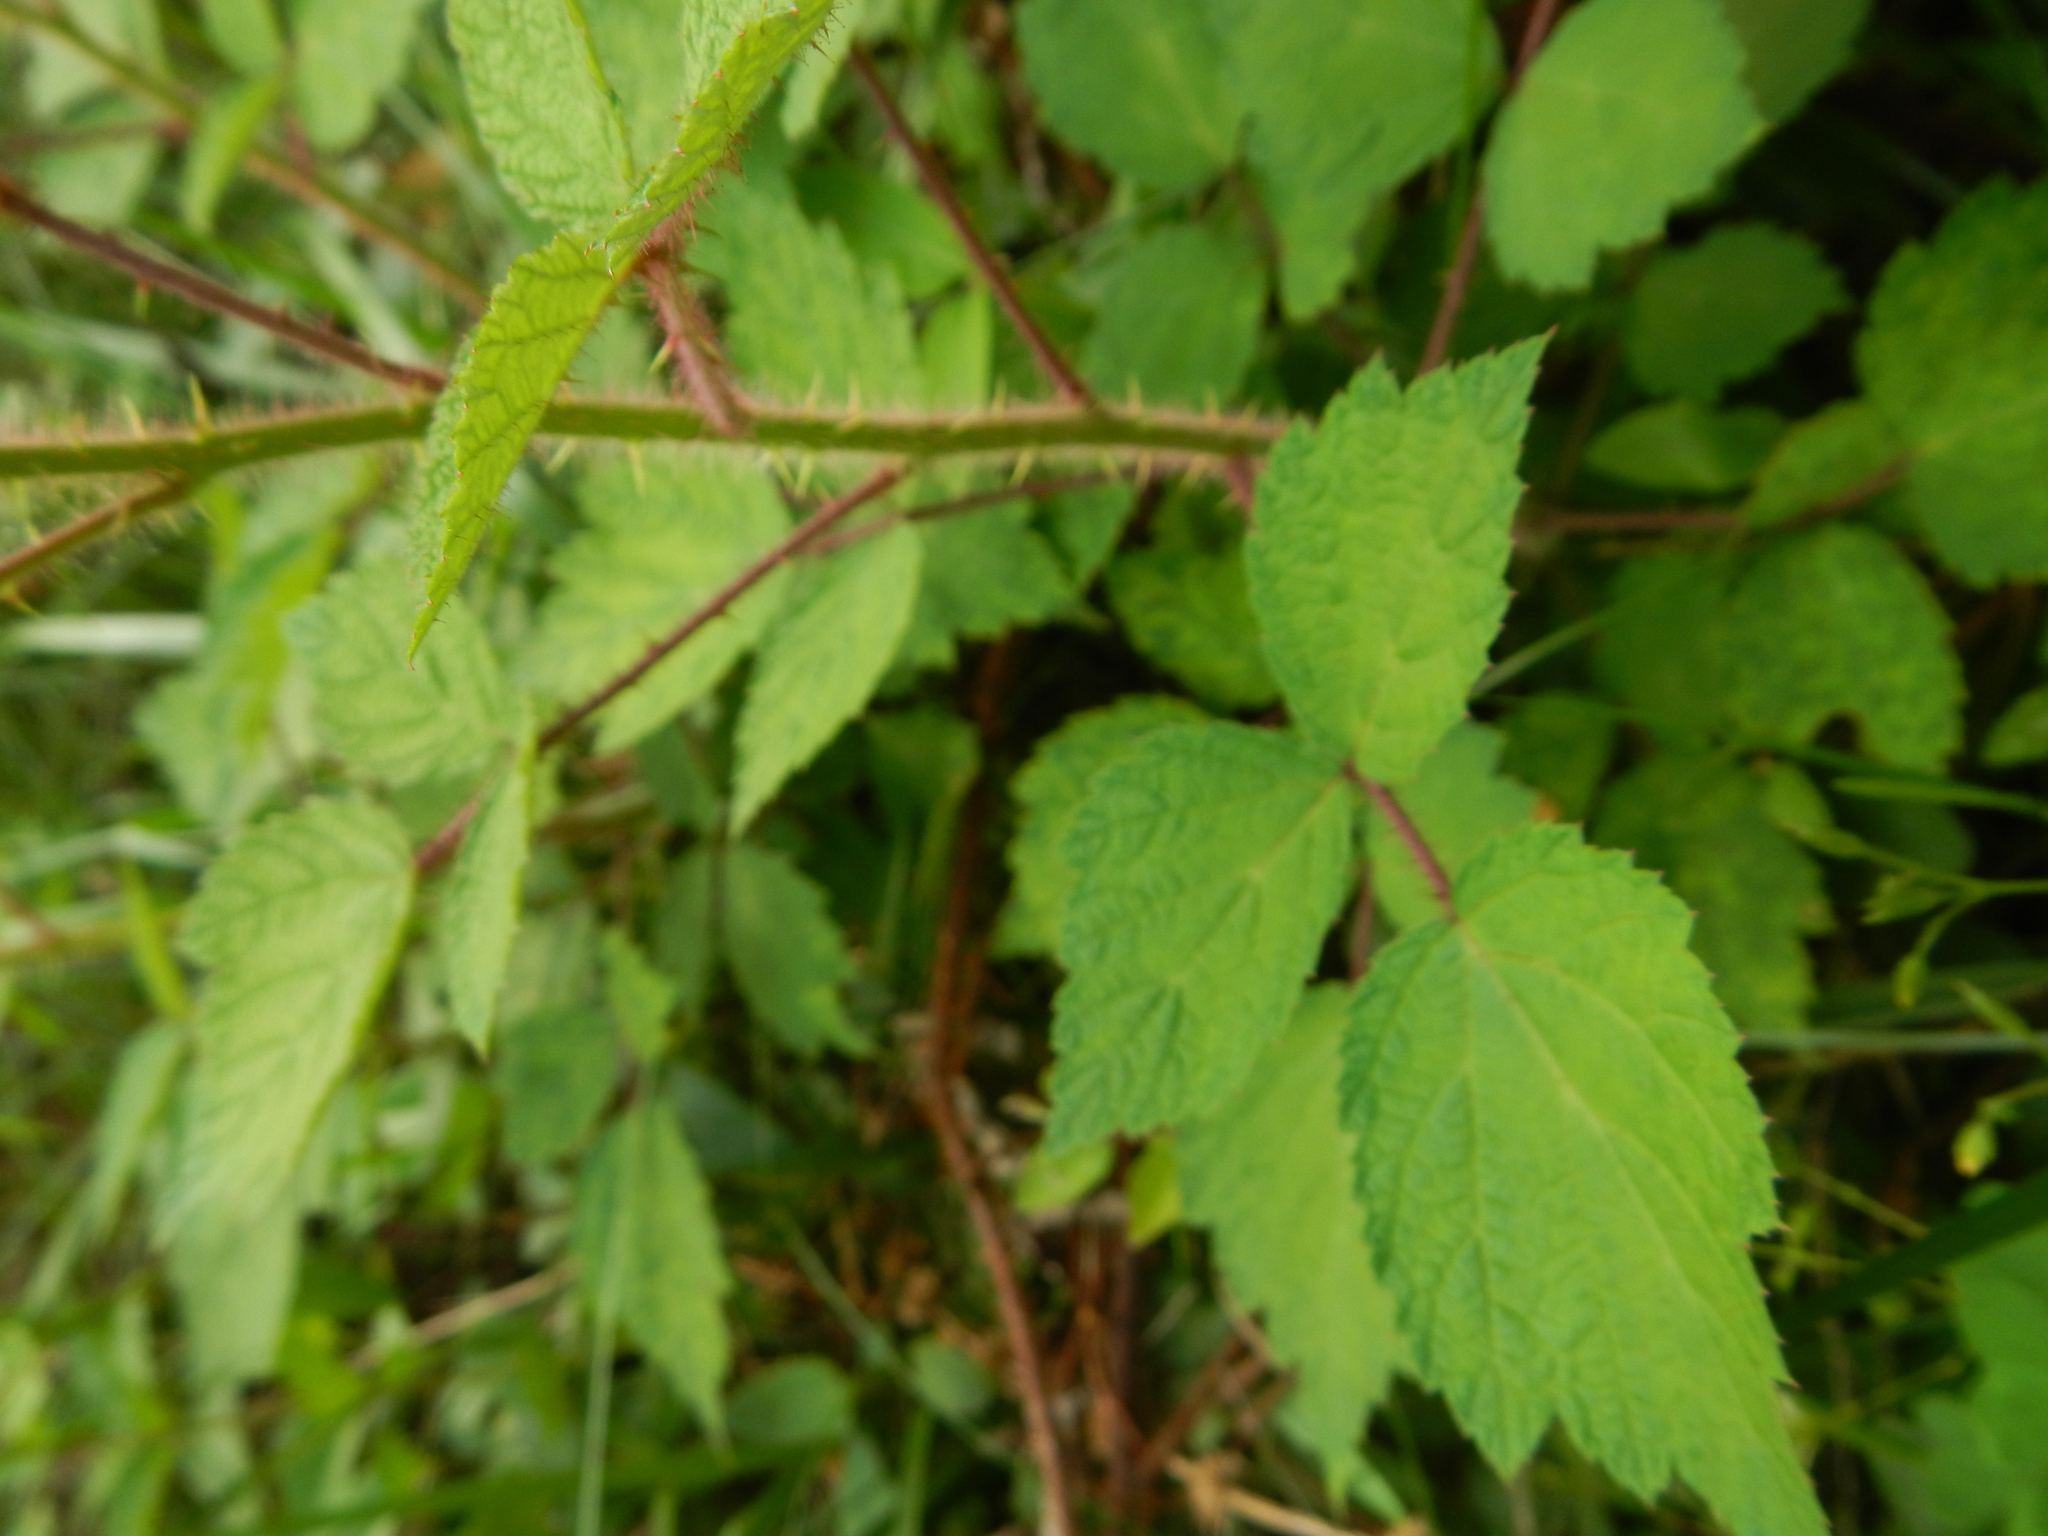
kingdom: Plantae
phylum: Tracheophyta
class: Magnoliopsida
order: Rosales
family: Rosaceae
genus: Rubus
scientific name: Rubus phoenicolasius
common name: Japanese wineberry
